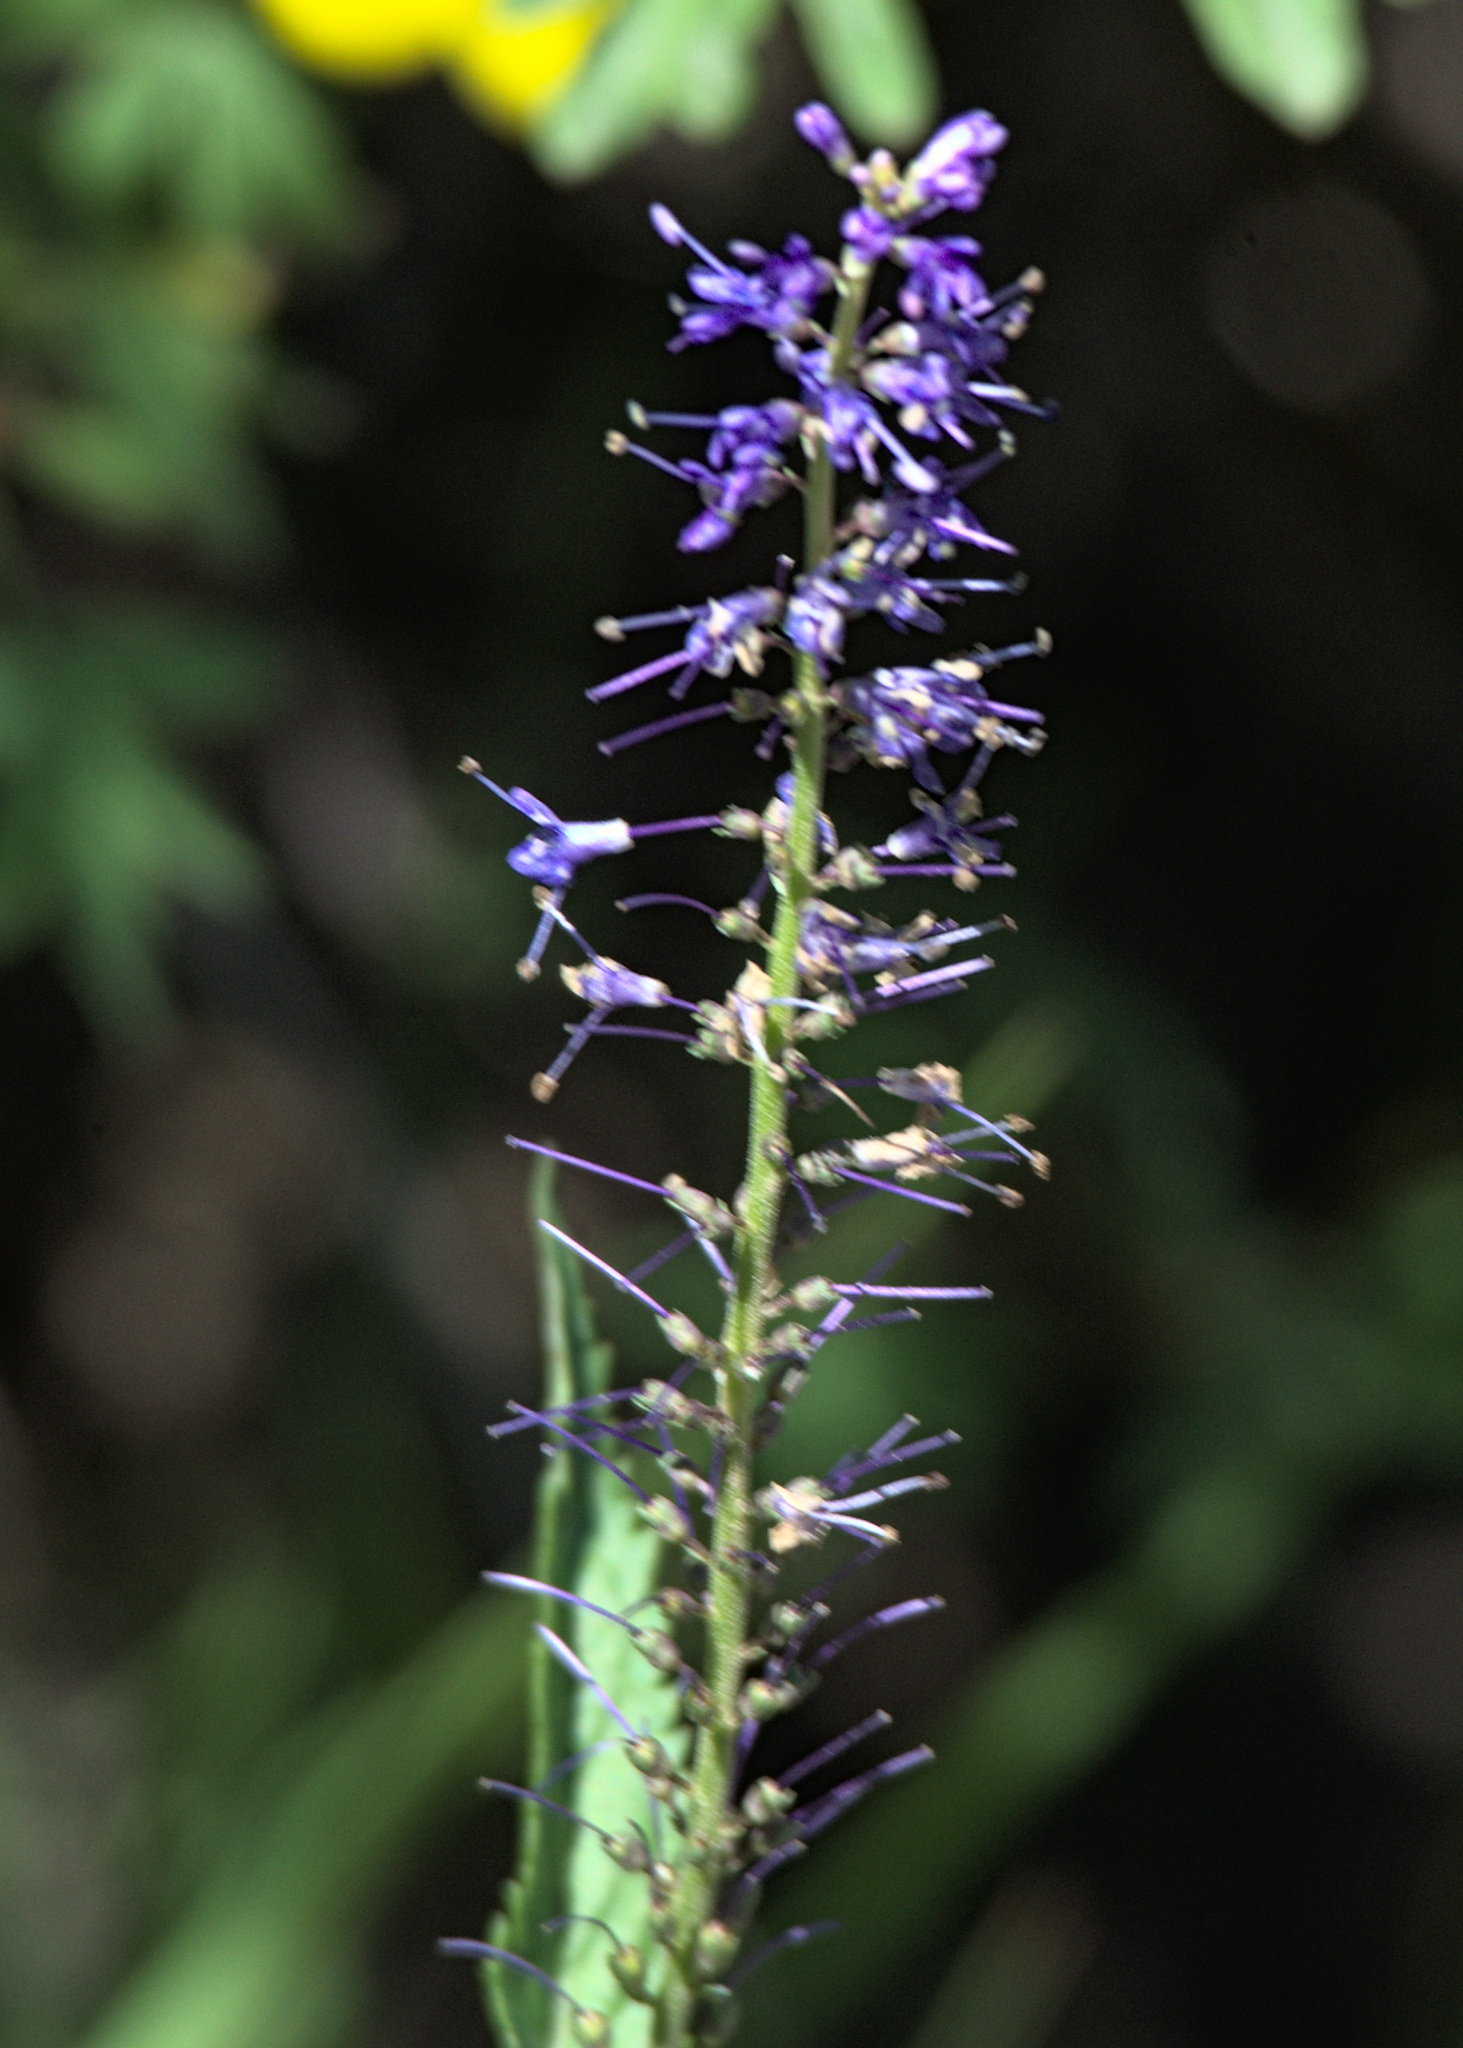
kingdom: Plantae
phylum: Tracheophyta
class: Magnoliopsida
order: Lamiales
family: Plantaginaceae
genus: Veronica
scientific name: Veronica longifolia
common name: Garden speedwell
